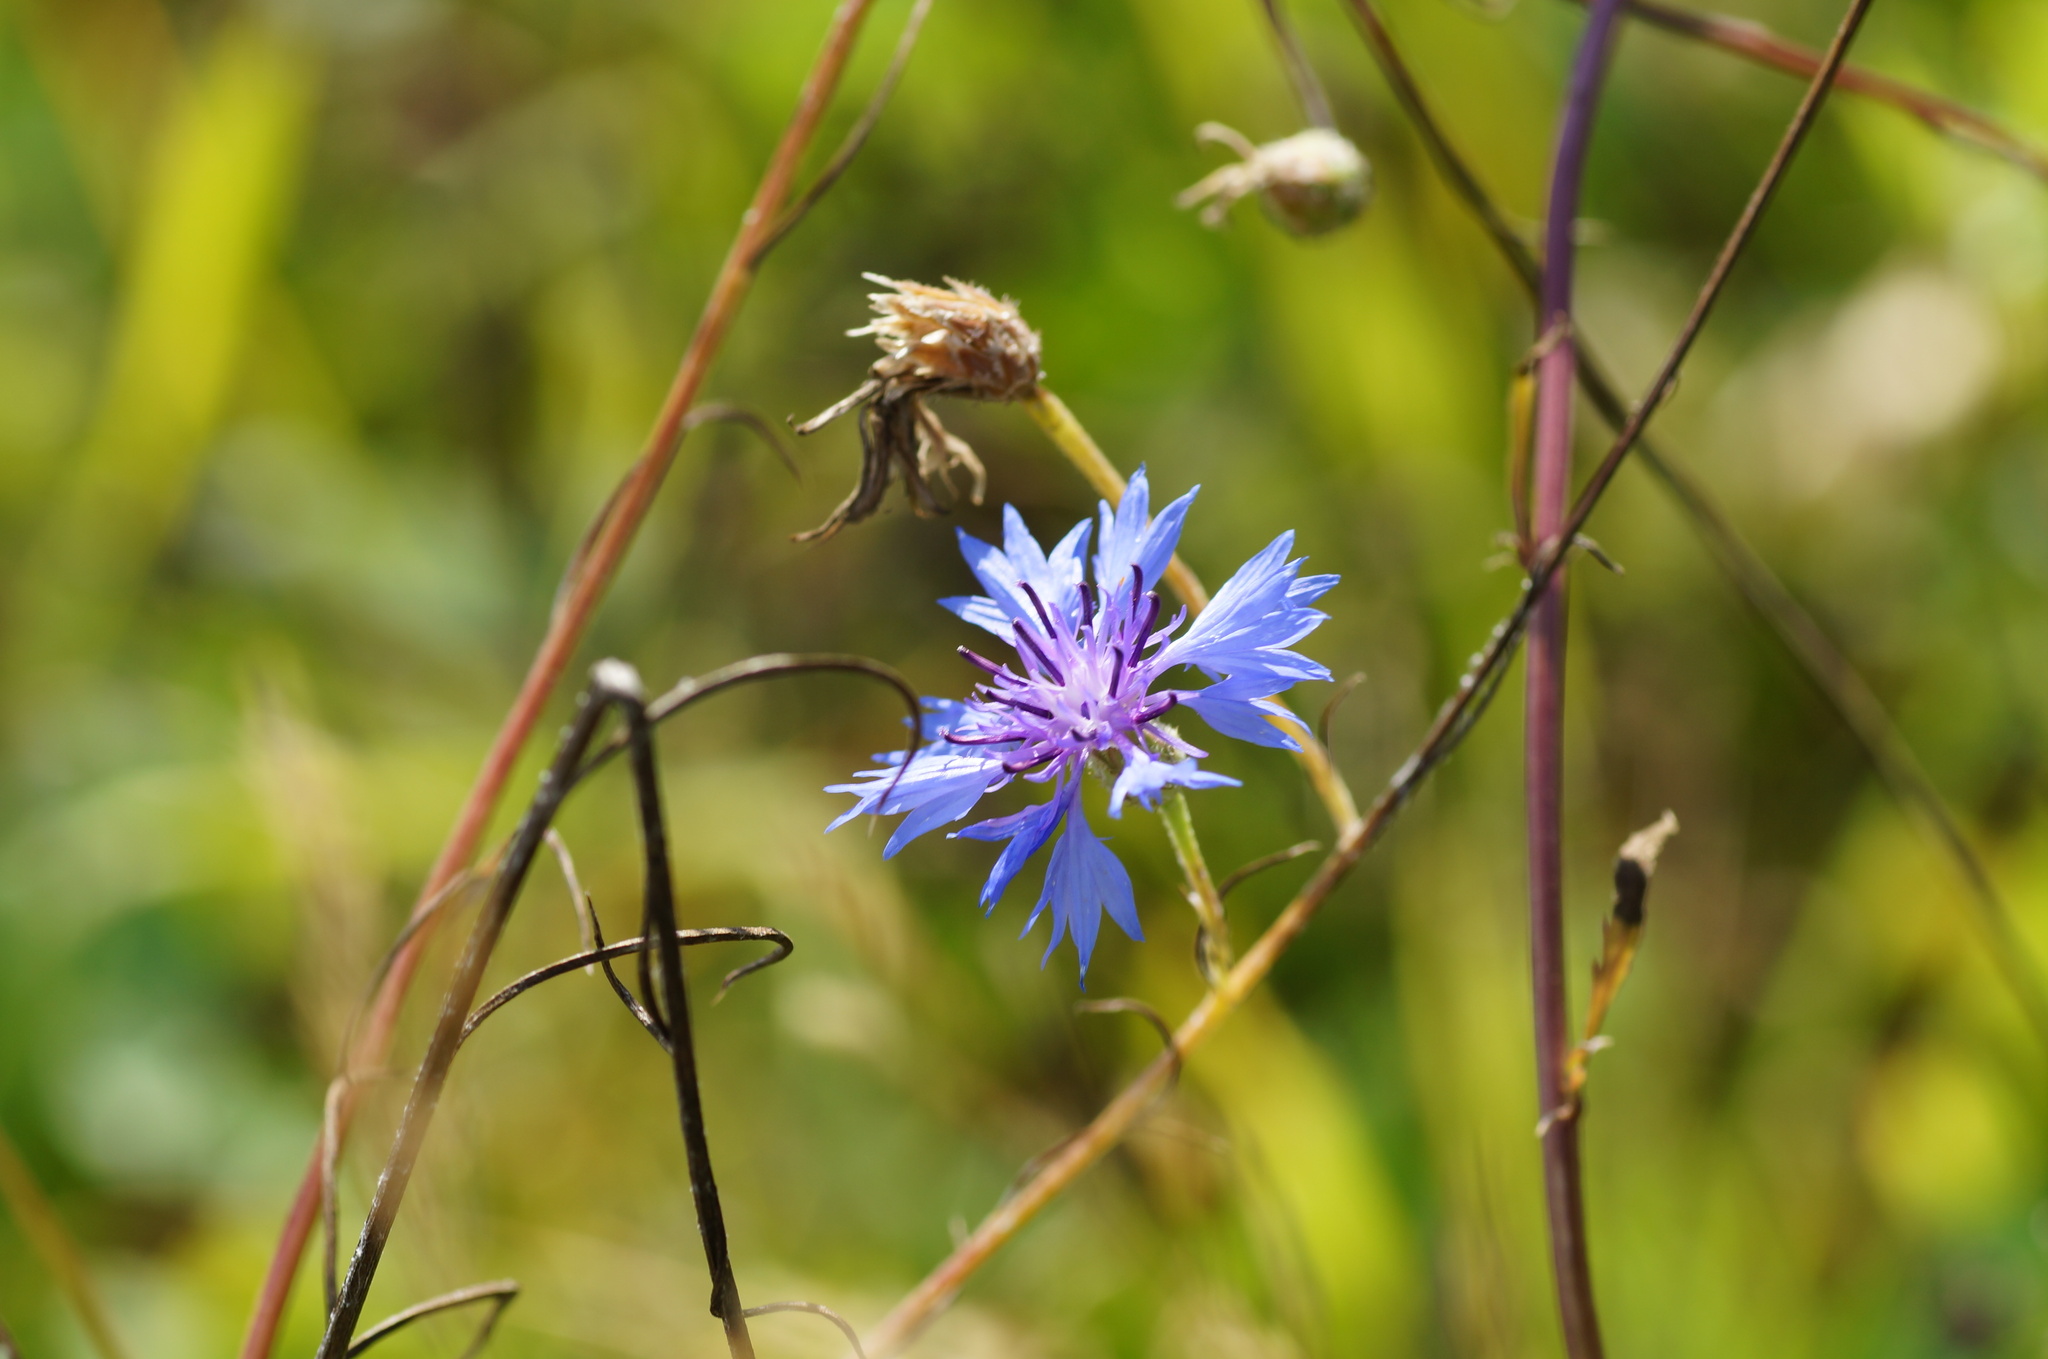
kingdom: Plantae
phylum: Tracheophyta
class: Magnoliopsida
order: Asterales
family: Asteraceae
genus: Centaurea
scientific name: Centaurea cyanus
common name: Cornflower
